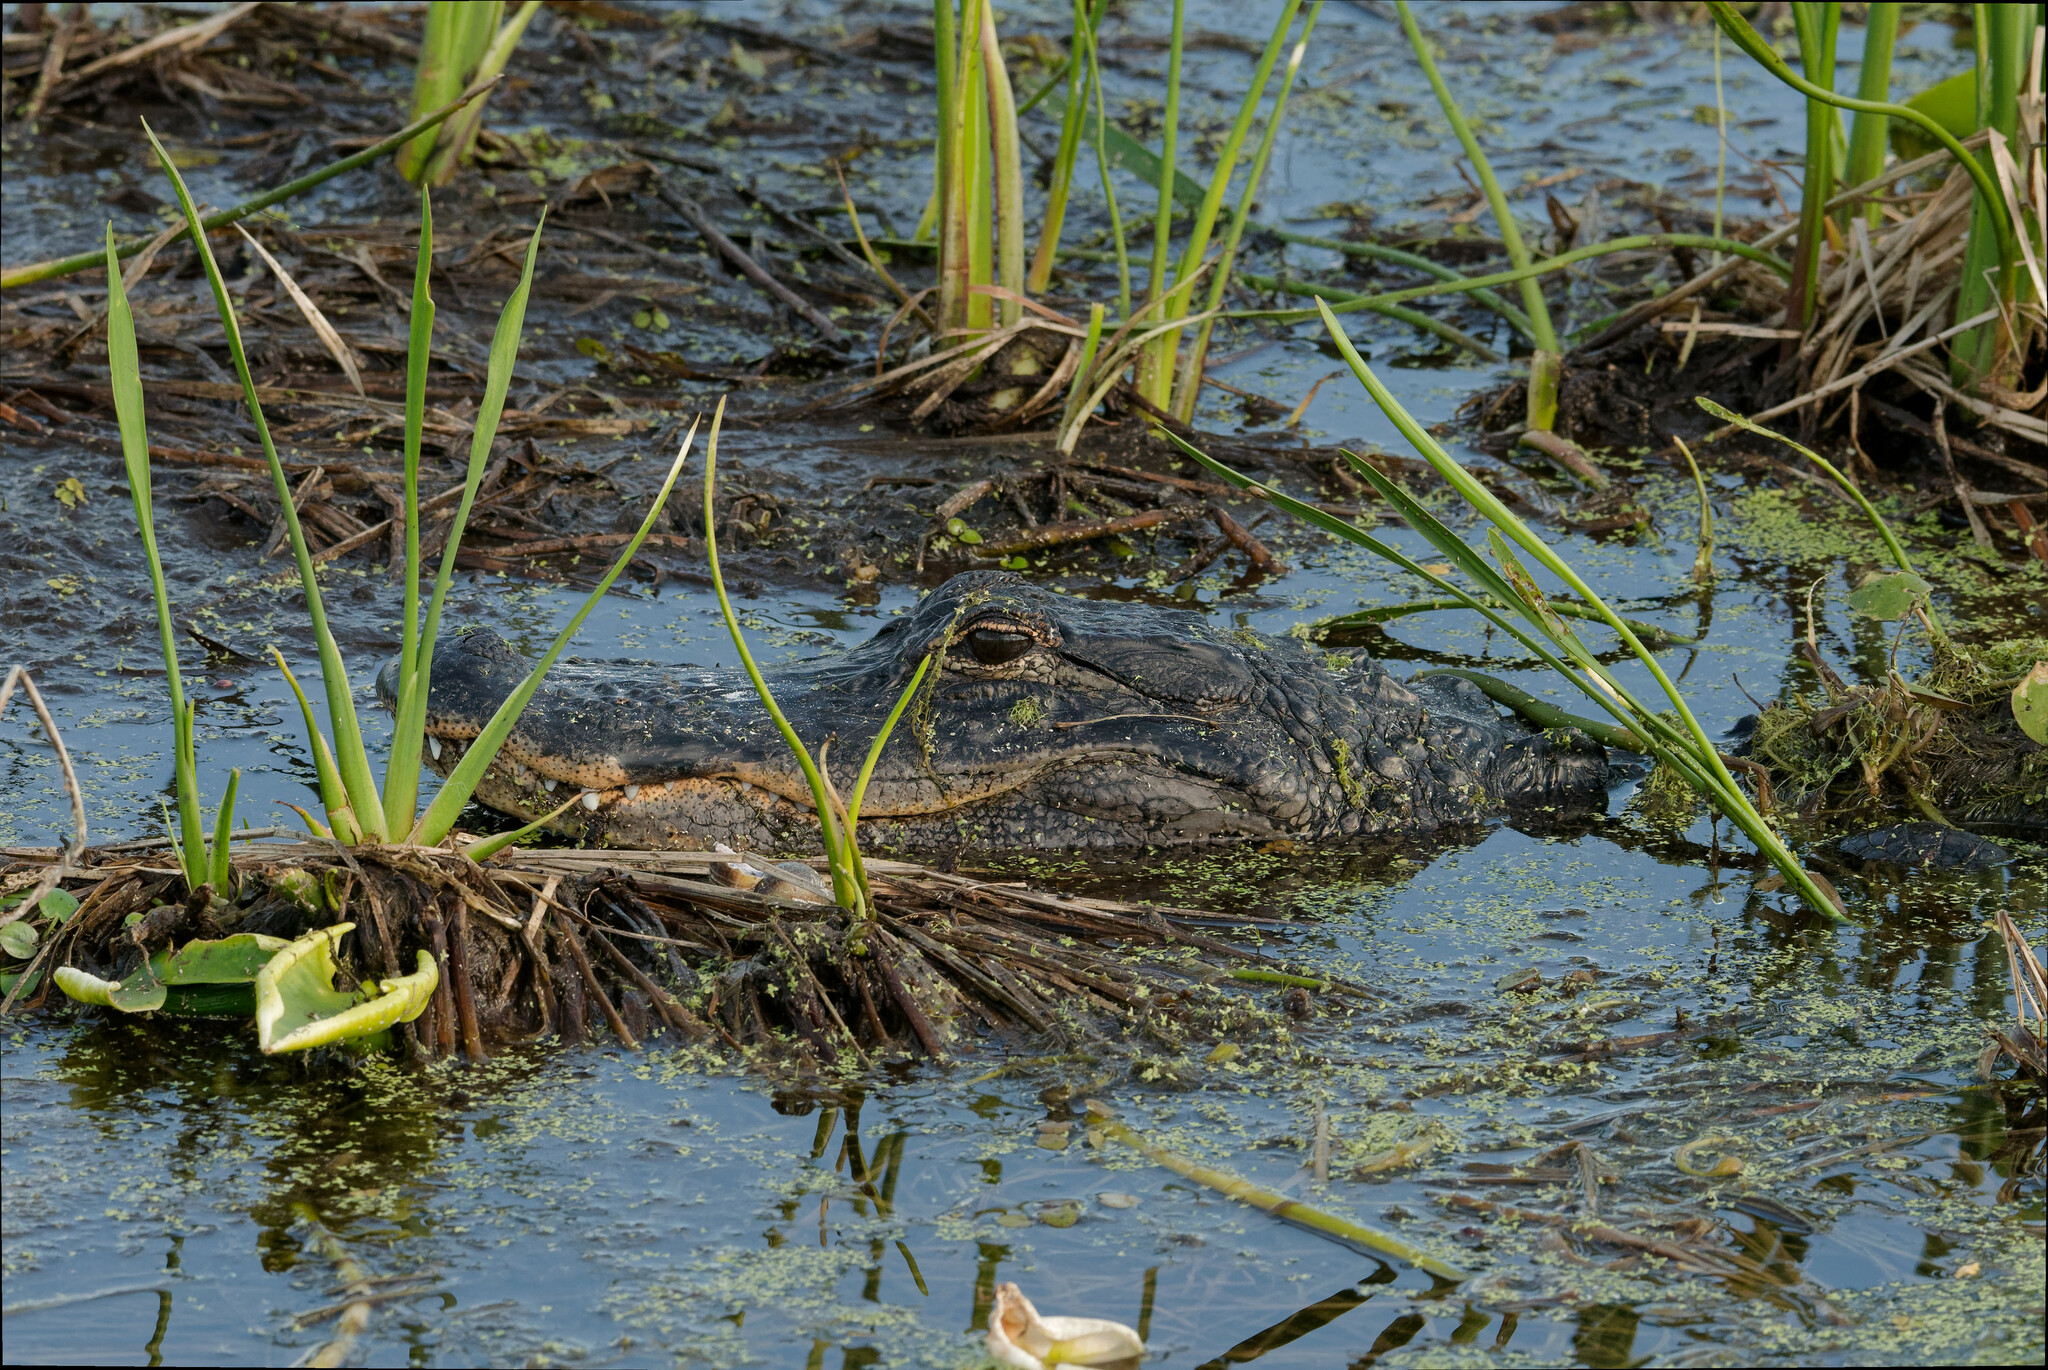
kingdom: Animalia
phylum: Chordata
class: Crocodylia
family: Alligatoridae
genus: Alligator
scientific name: Alligator mississippiensis
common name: American alligator
